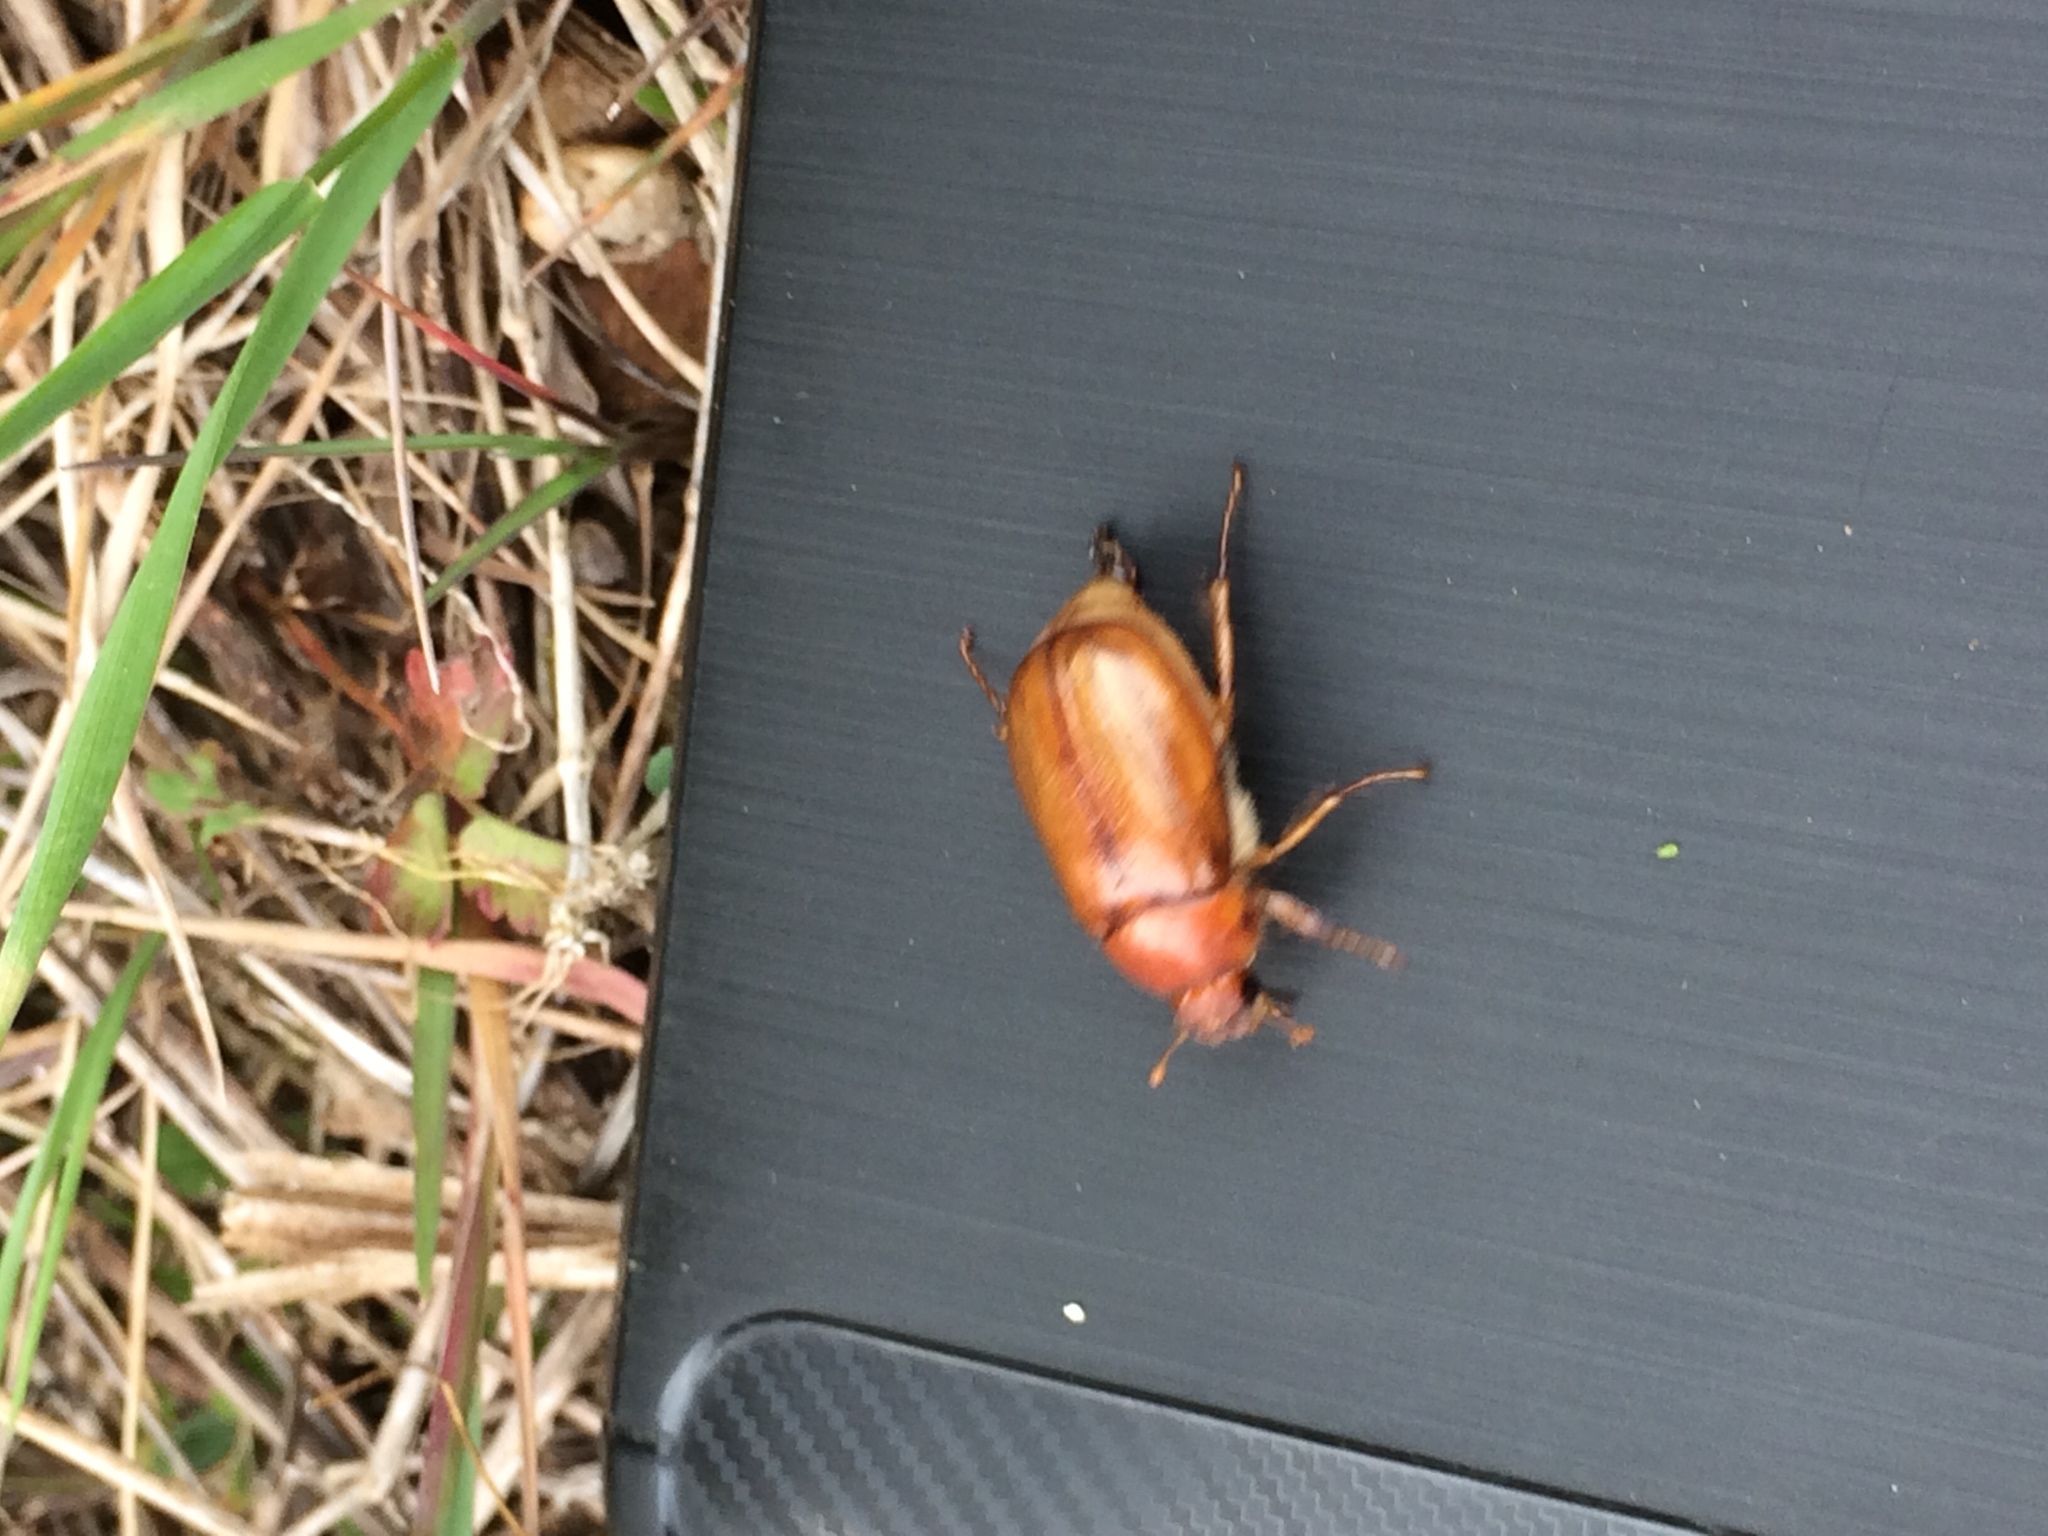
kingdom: Animalia
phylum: Arthropoda
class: Insecta
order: Coleoptera
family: Scarabaeidae
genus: Amphimallon
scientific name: Amphimallon solstitiale
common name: Summer chafer
